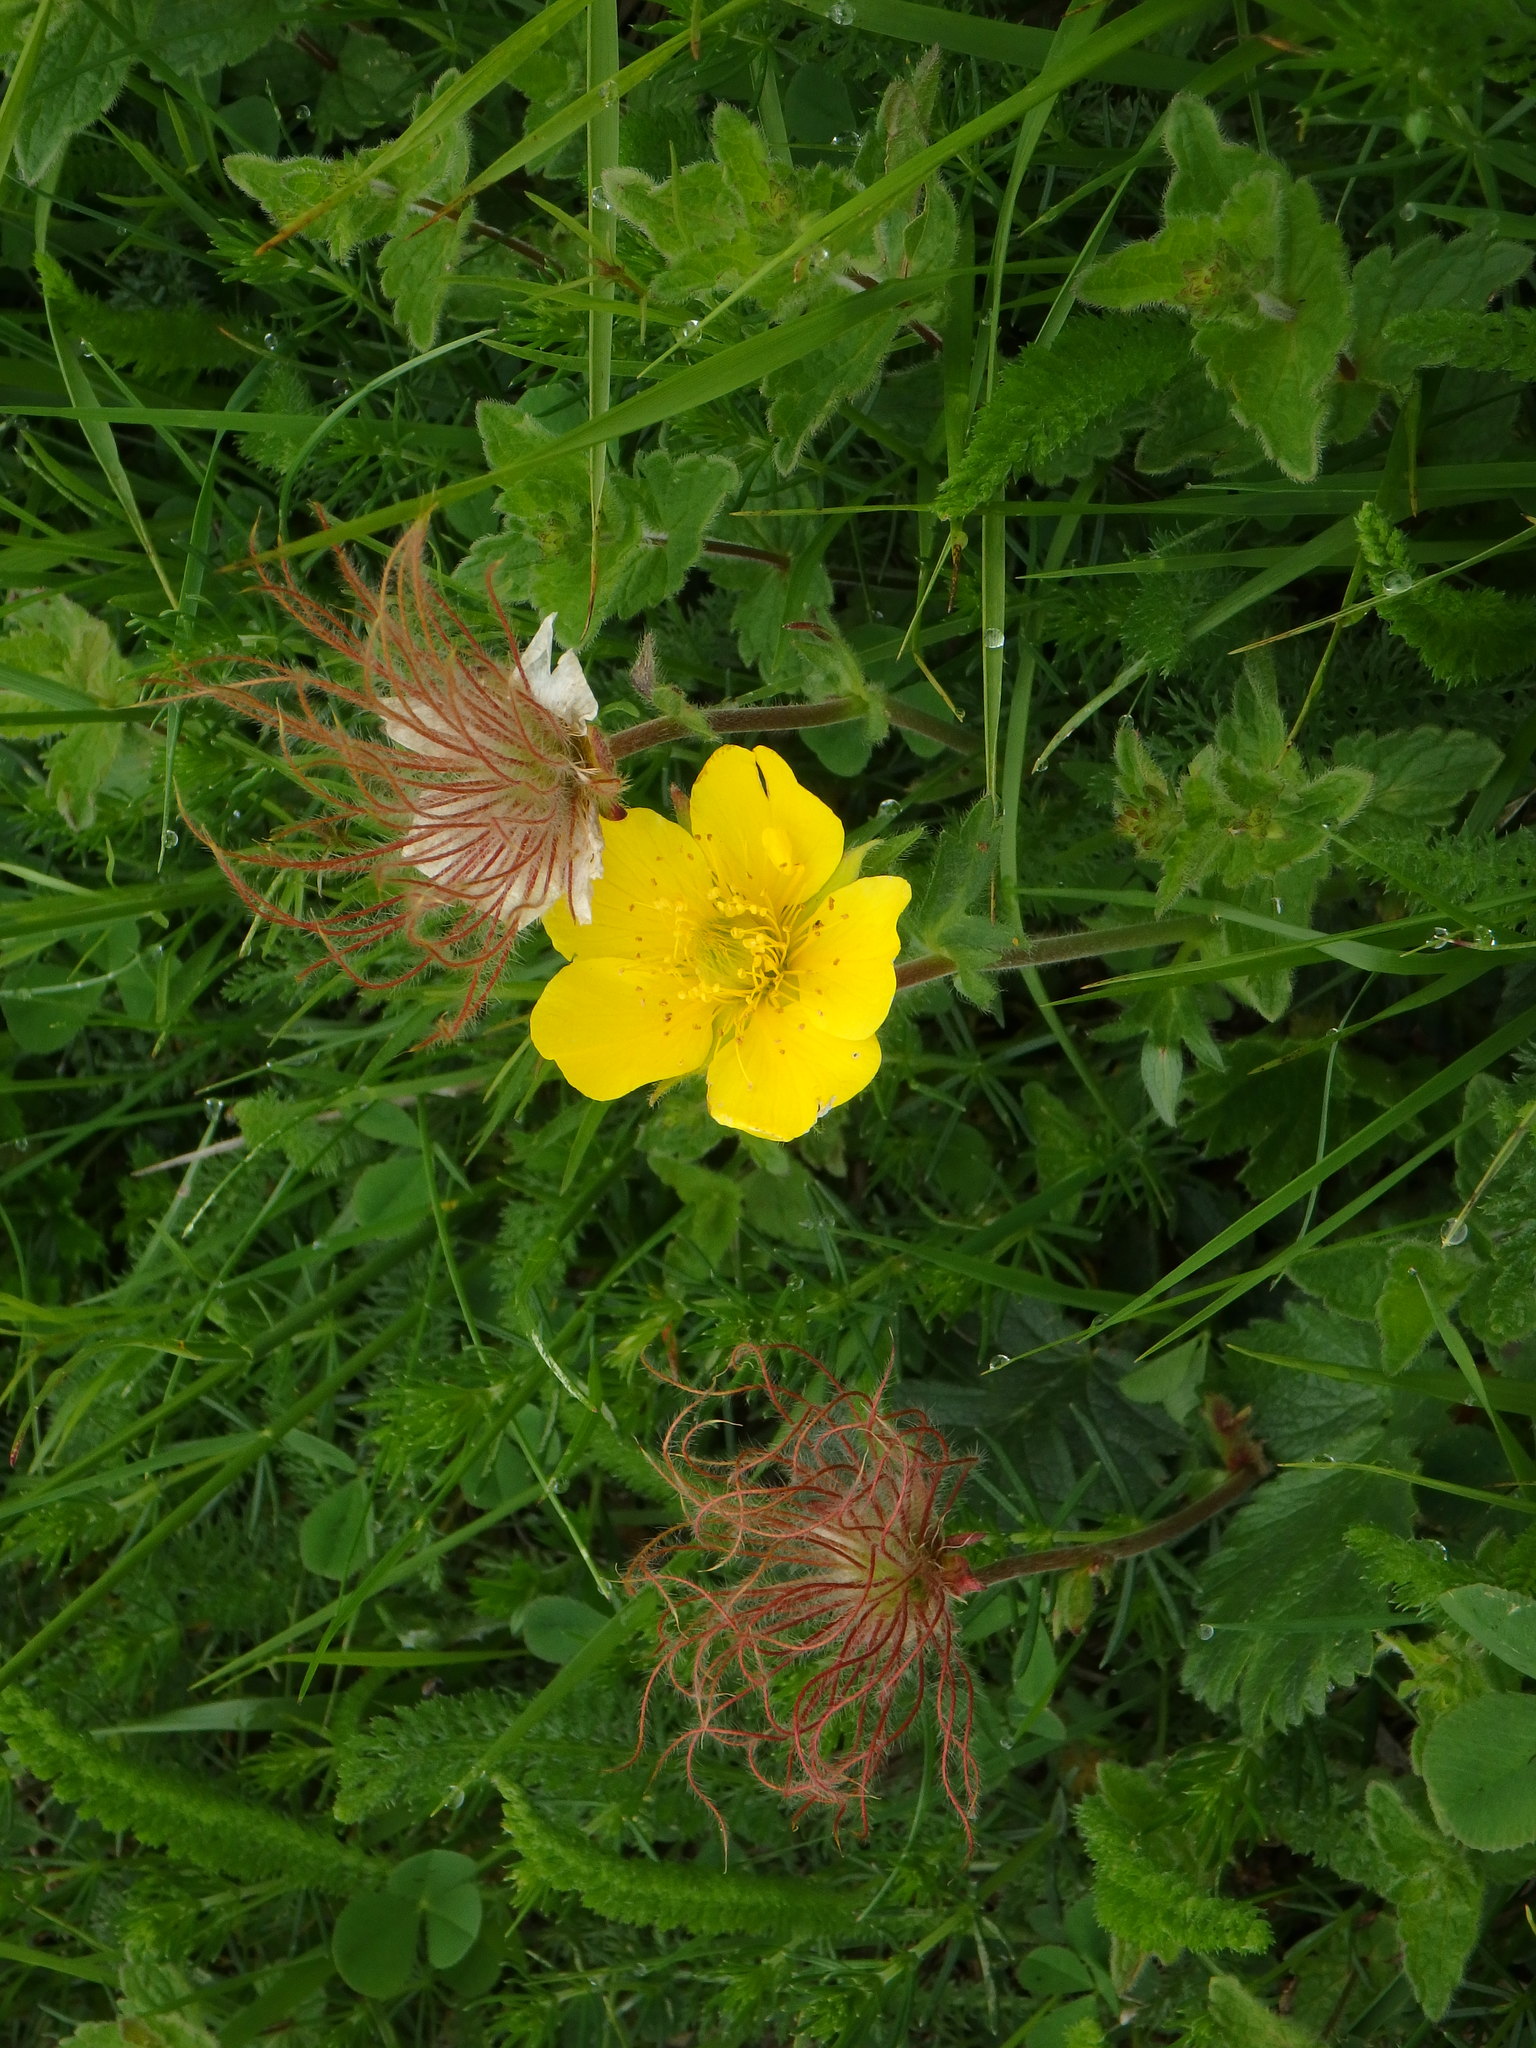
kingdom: Plantae
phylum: Tracheophyta
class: Magnoliopsida
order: Rosales
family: Rosaceae
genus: Geum
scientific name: Geum montanum
